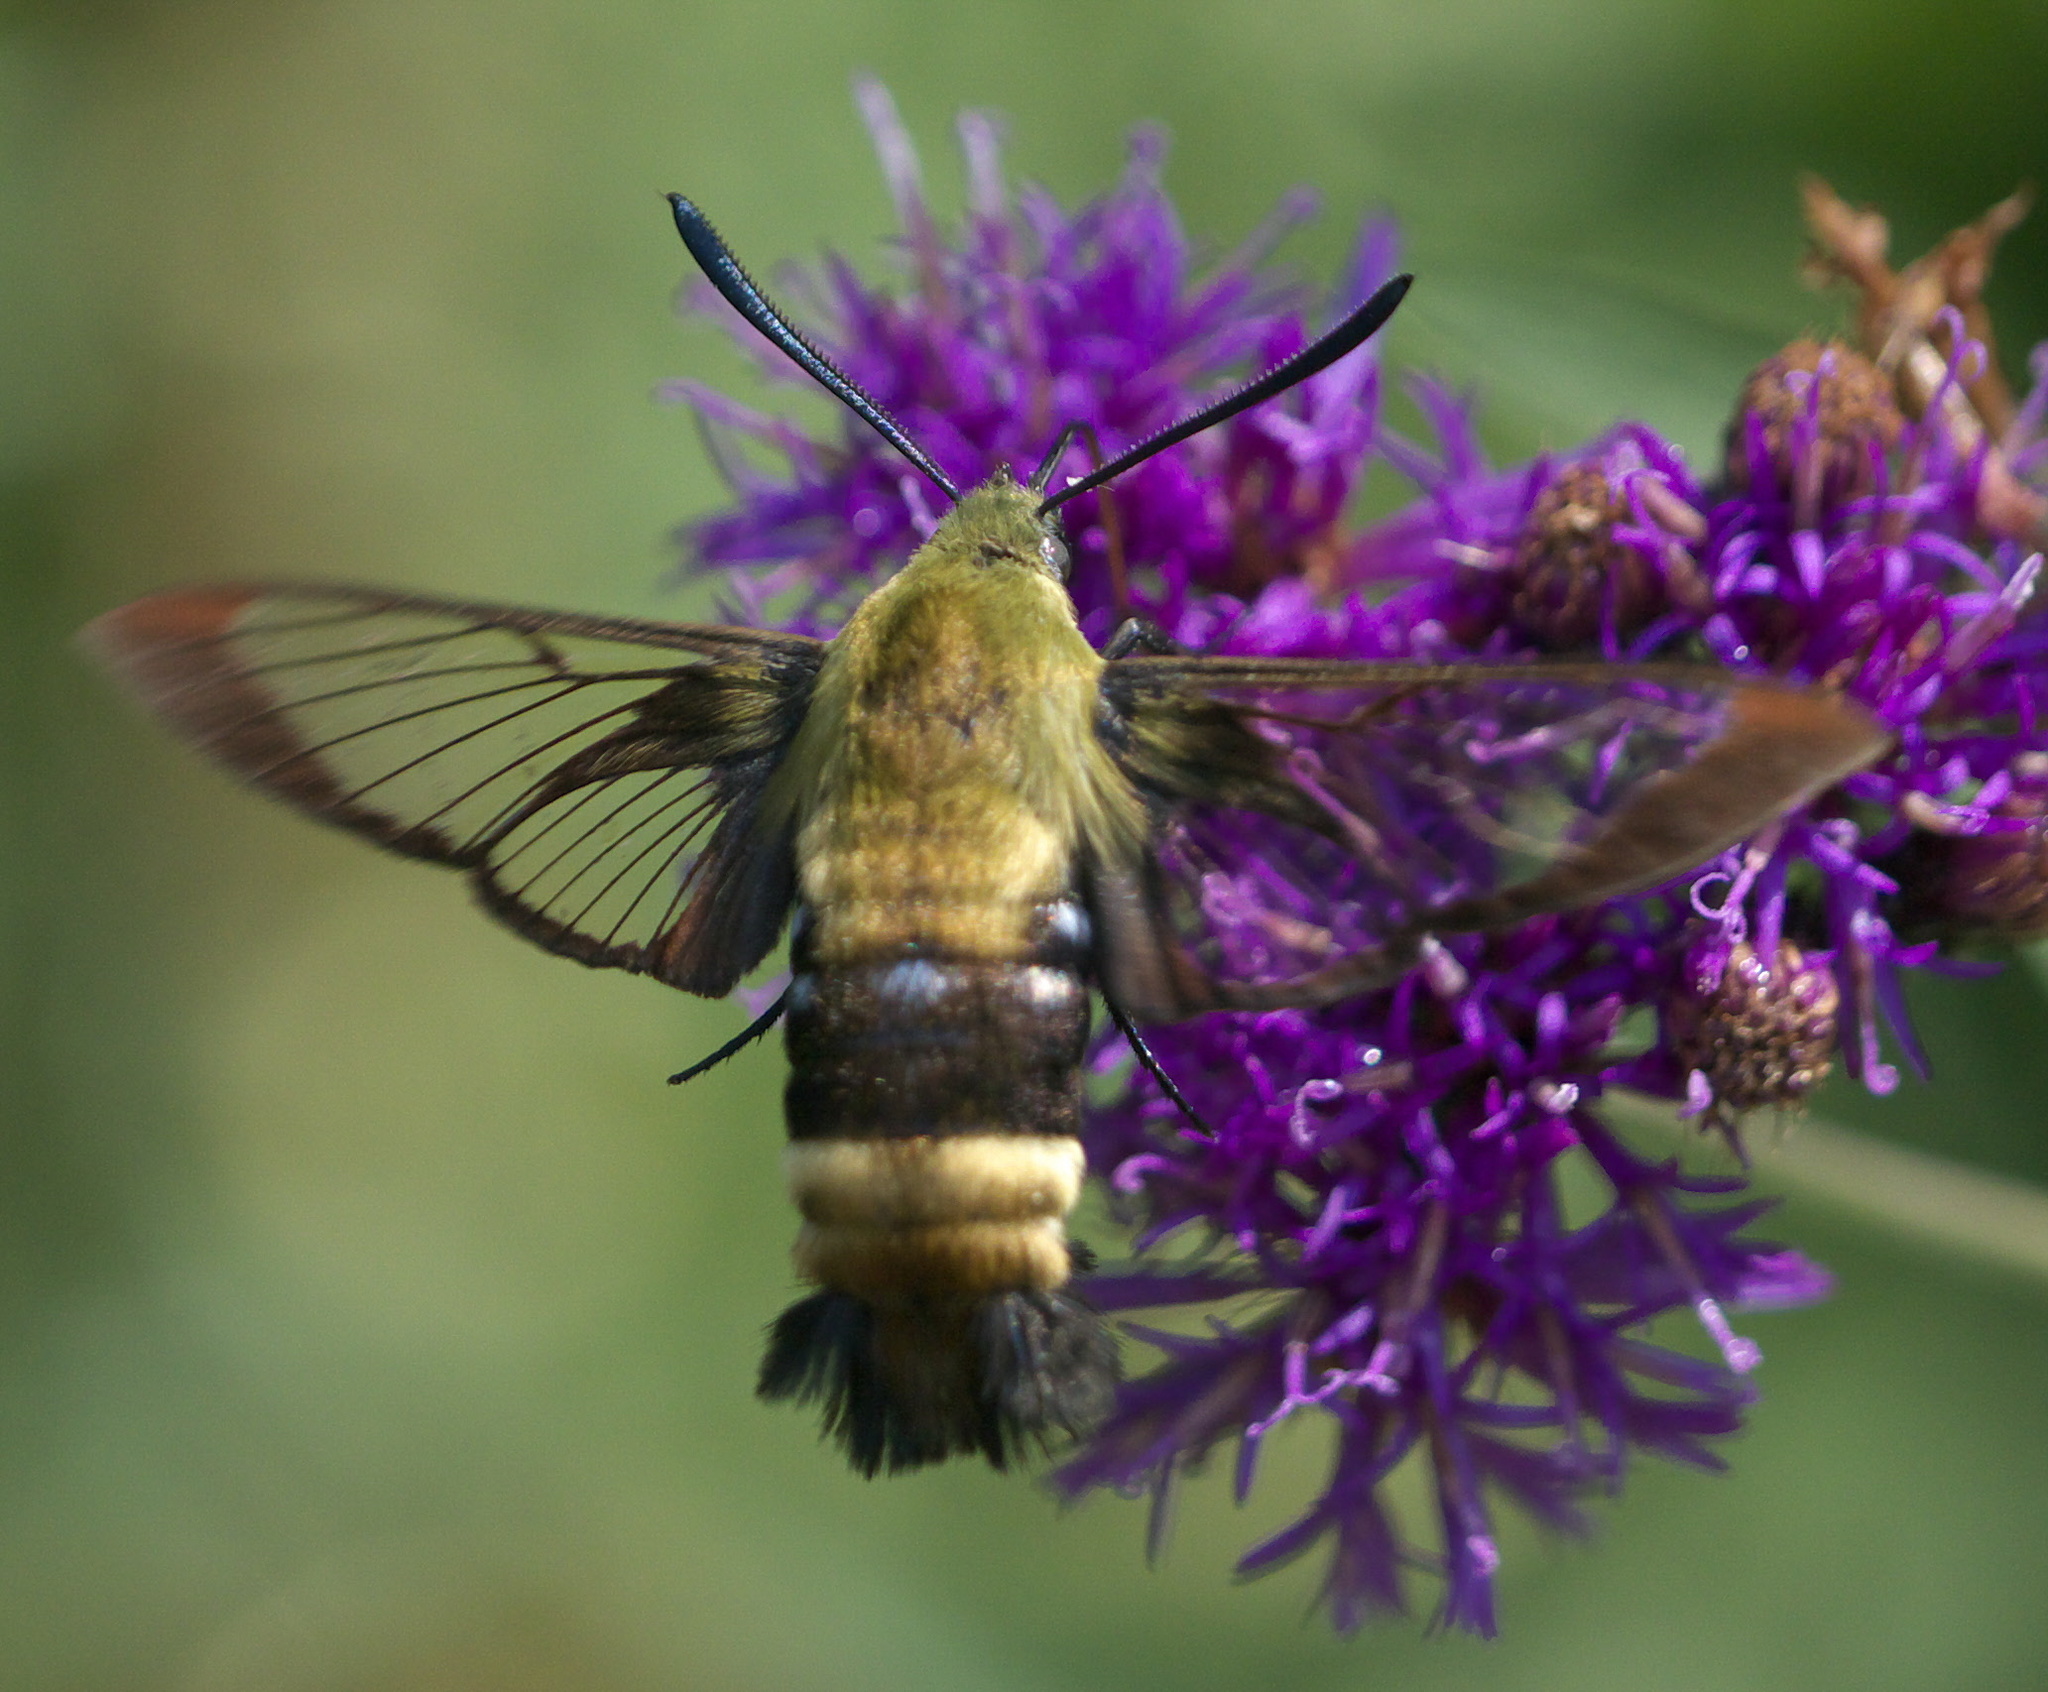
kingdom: Animalia
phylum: Arthropoda
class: Insecta
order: Lepidoptera
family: Sphingidae
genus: Hemaris
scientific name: Hemaris diffinis
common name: Bumblebee moth
